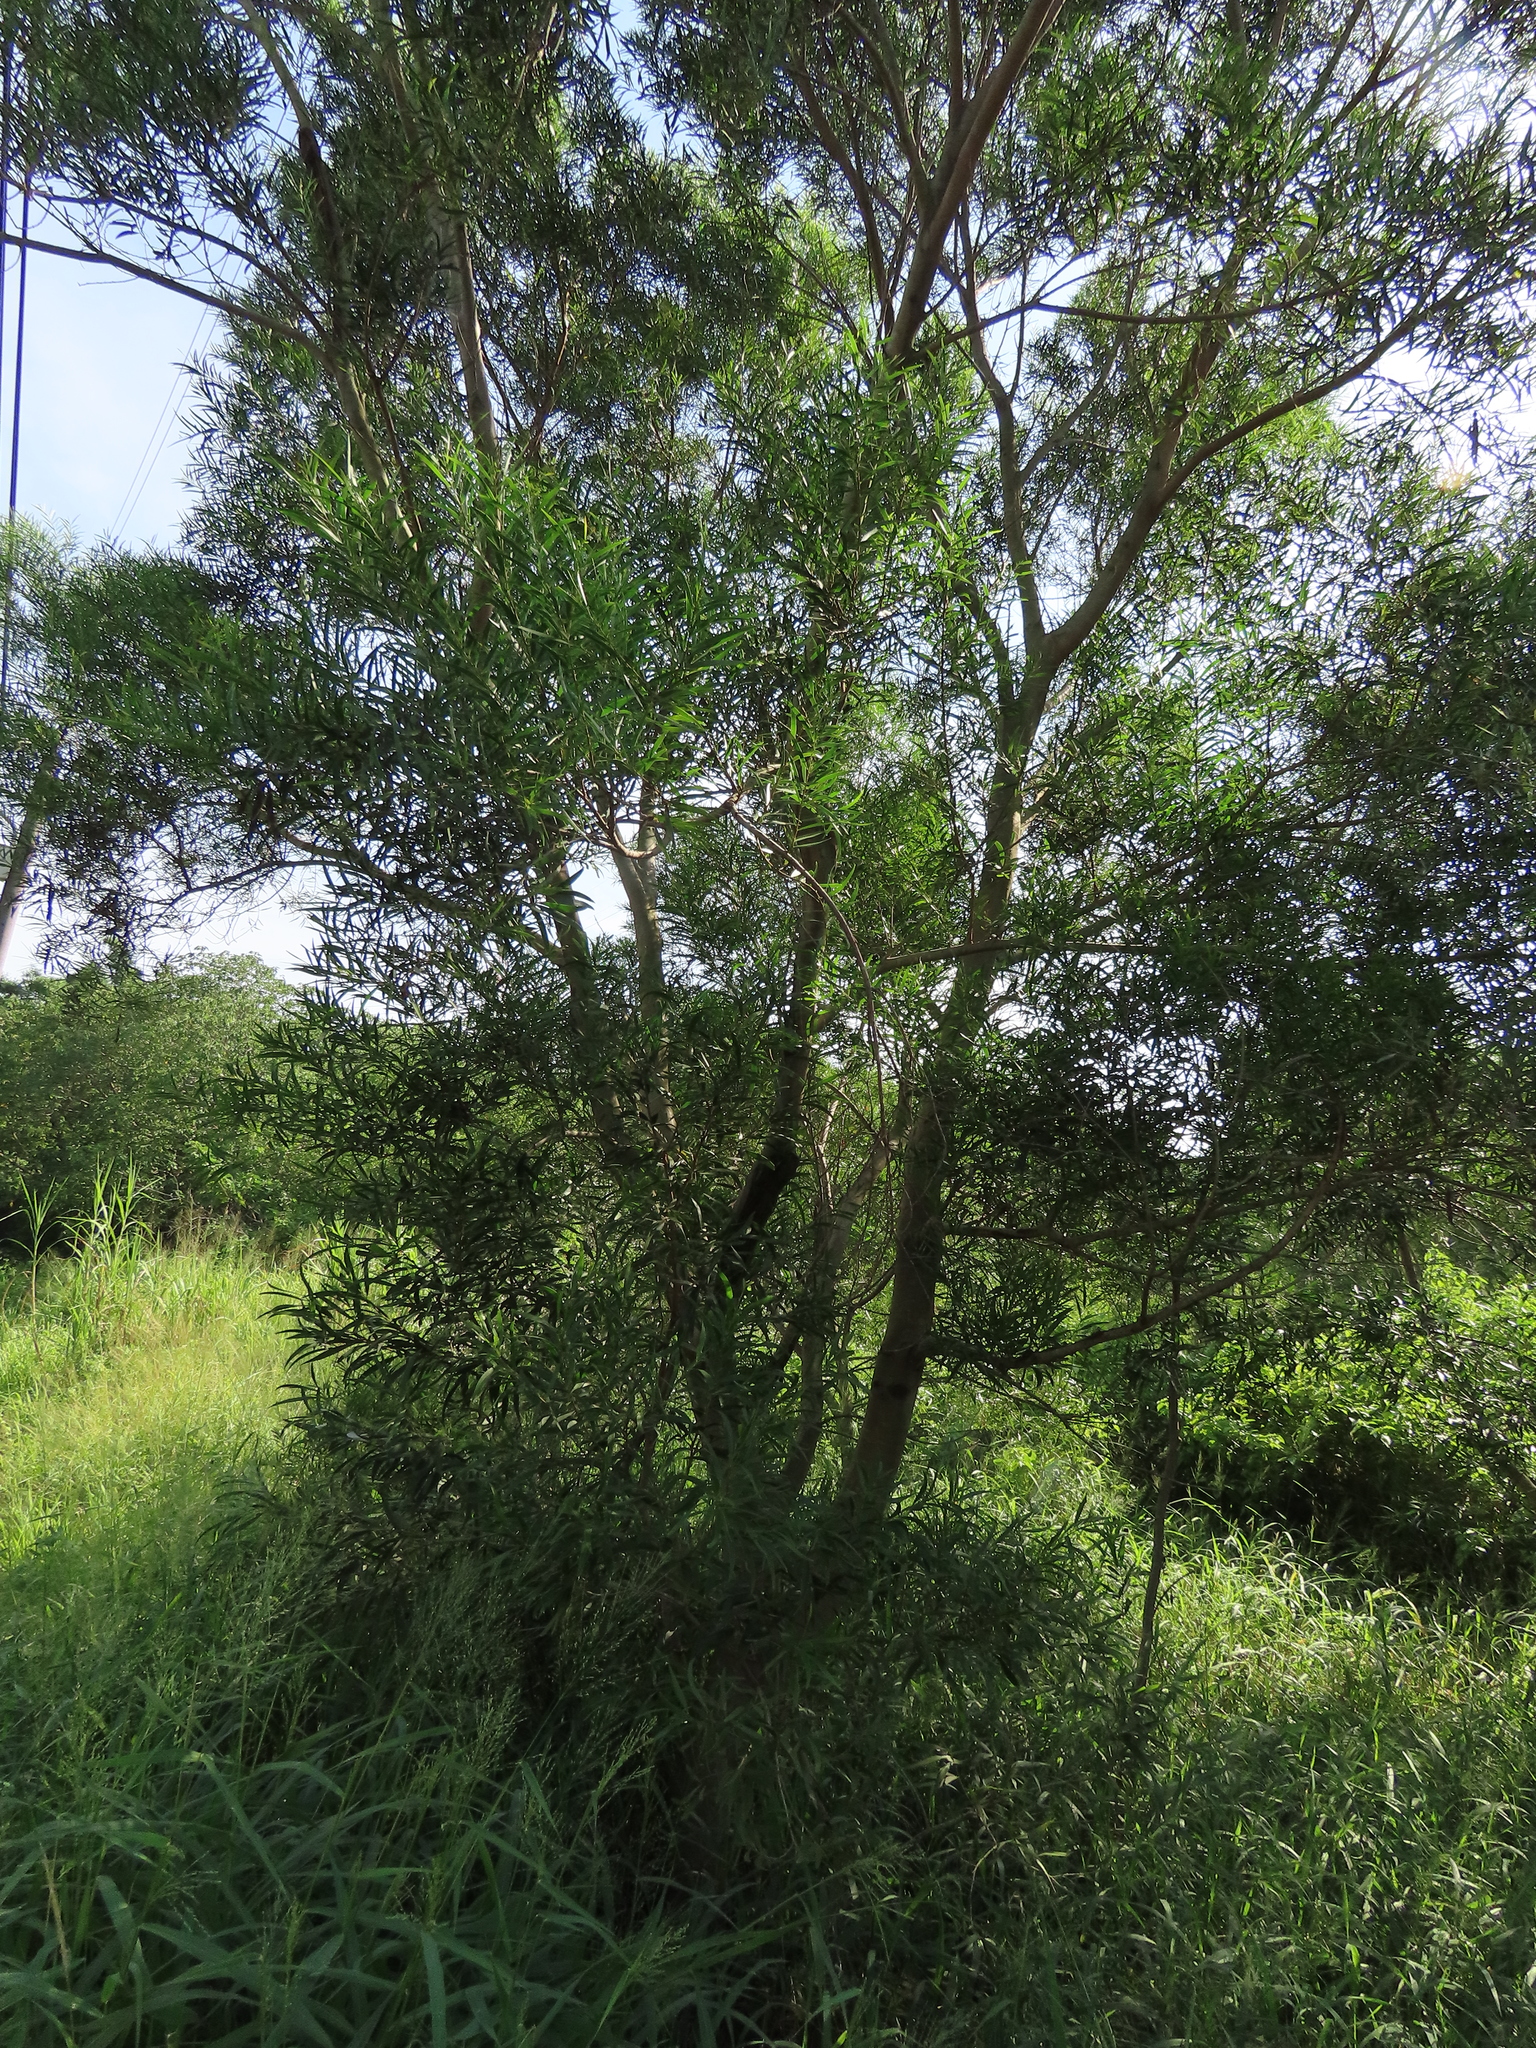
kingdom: Plantae
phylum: Tracheophyta
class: Magnoliopsida
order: Fabales
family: Fabaceae
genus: Acacia
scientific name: Acacia confusa
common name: Formosan koa
